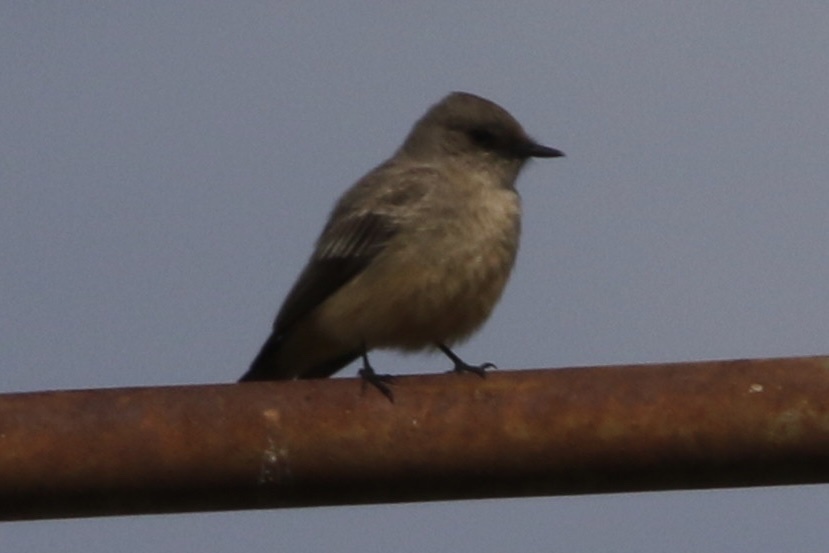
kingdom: Animalia
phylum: Chordata
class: Aves
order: Passeriformes
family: Tyrannidae
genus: Sayornis
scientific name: Sayornis saya
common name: Say's phoebe
